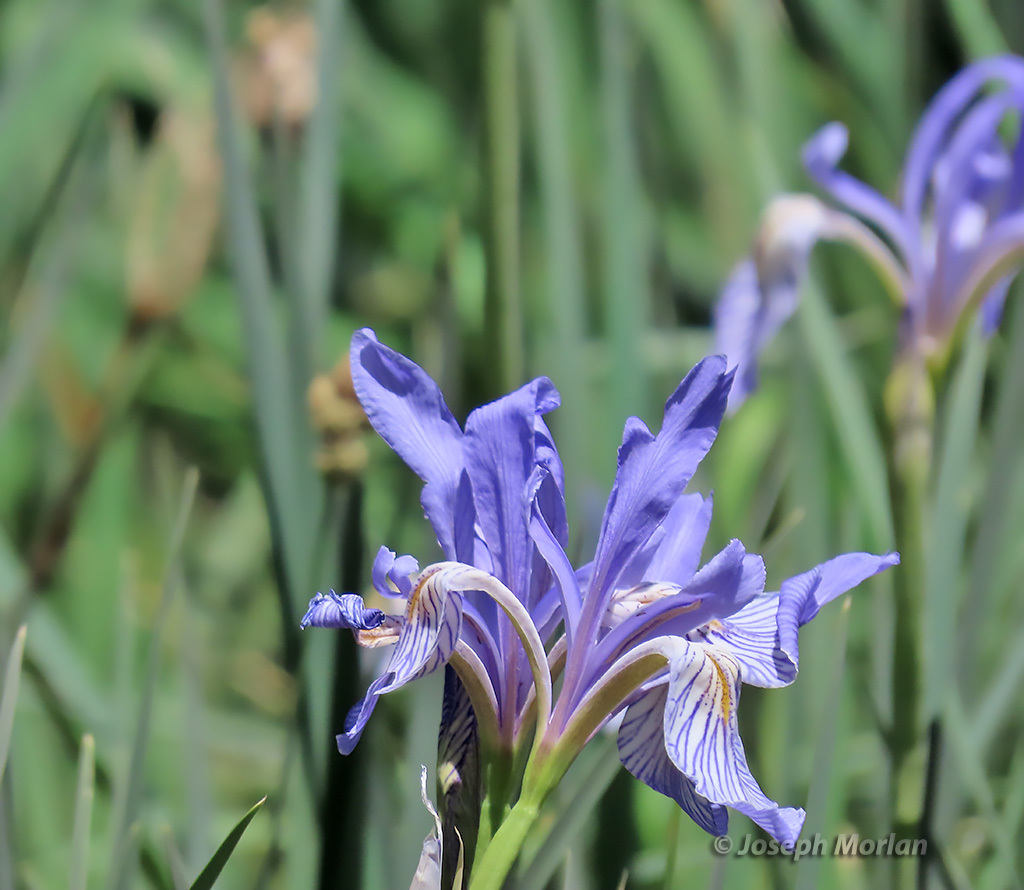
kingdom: Plantae
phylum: Tracheophyta
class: Liliopsida
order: Asparagales
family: Iridaceae
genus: Iris
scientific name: Iris missouriensis
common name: Rocky mountain iris
